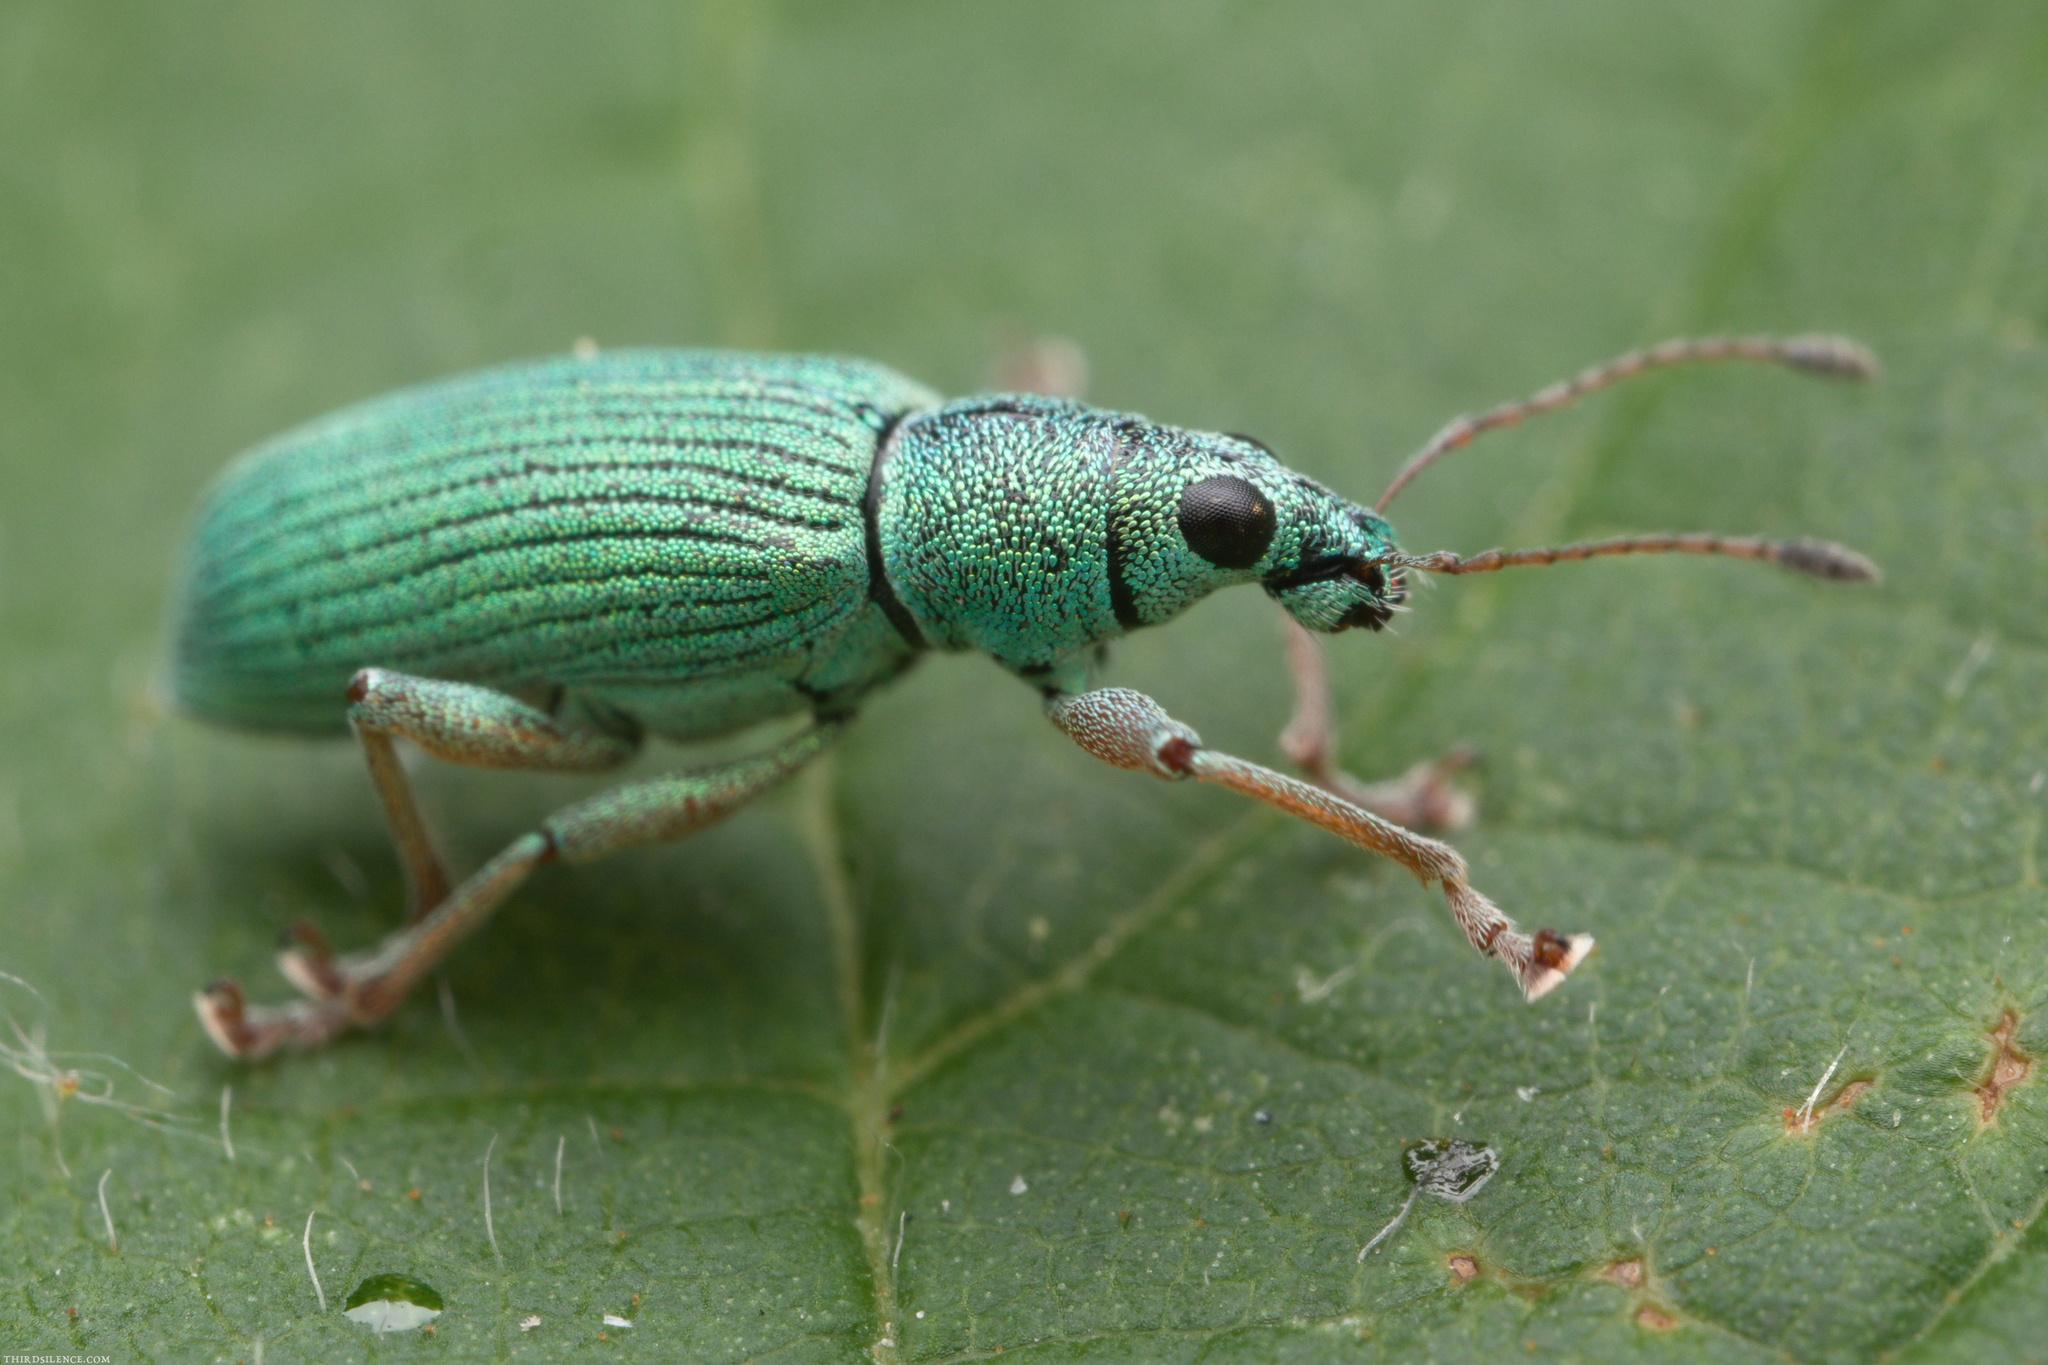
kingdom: Animalia
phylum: Arthropoda
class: Insecta
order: Coleoptera
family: Curculionidae
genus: Polydrusus
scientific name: Polydrusus formosus
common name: Weevil
